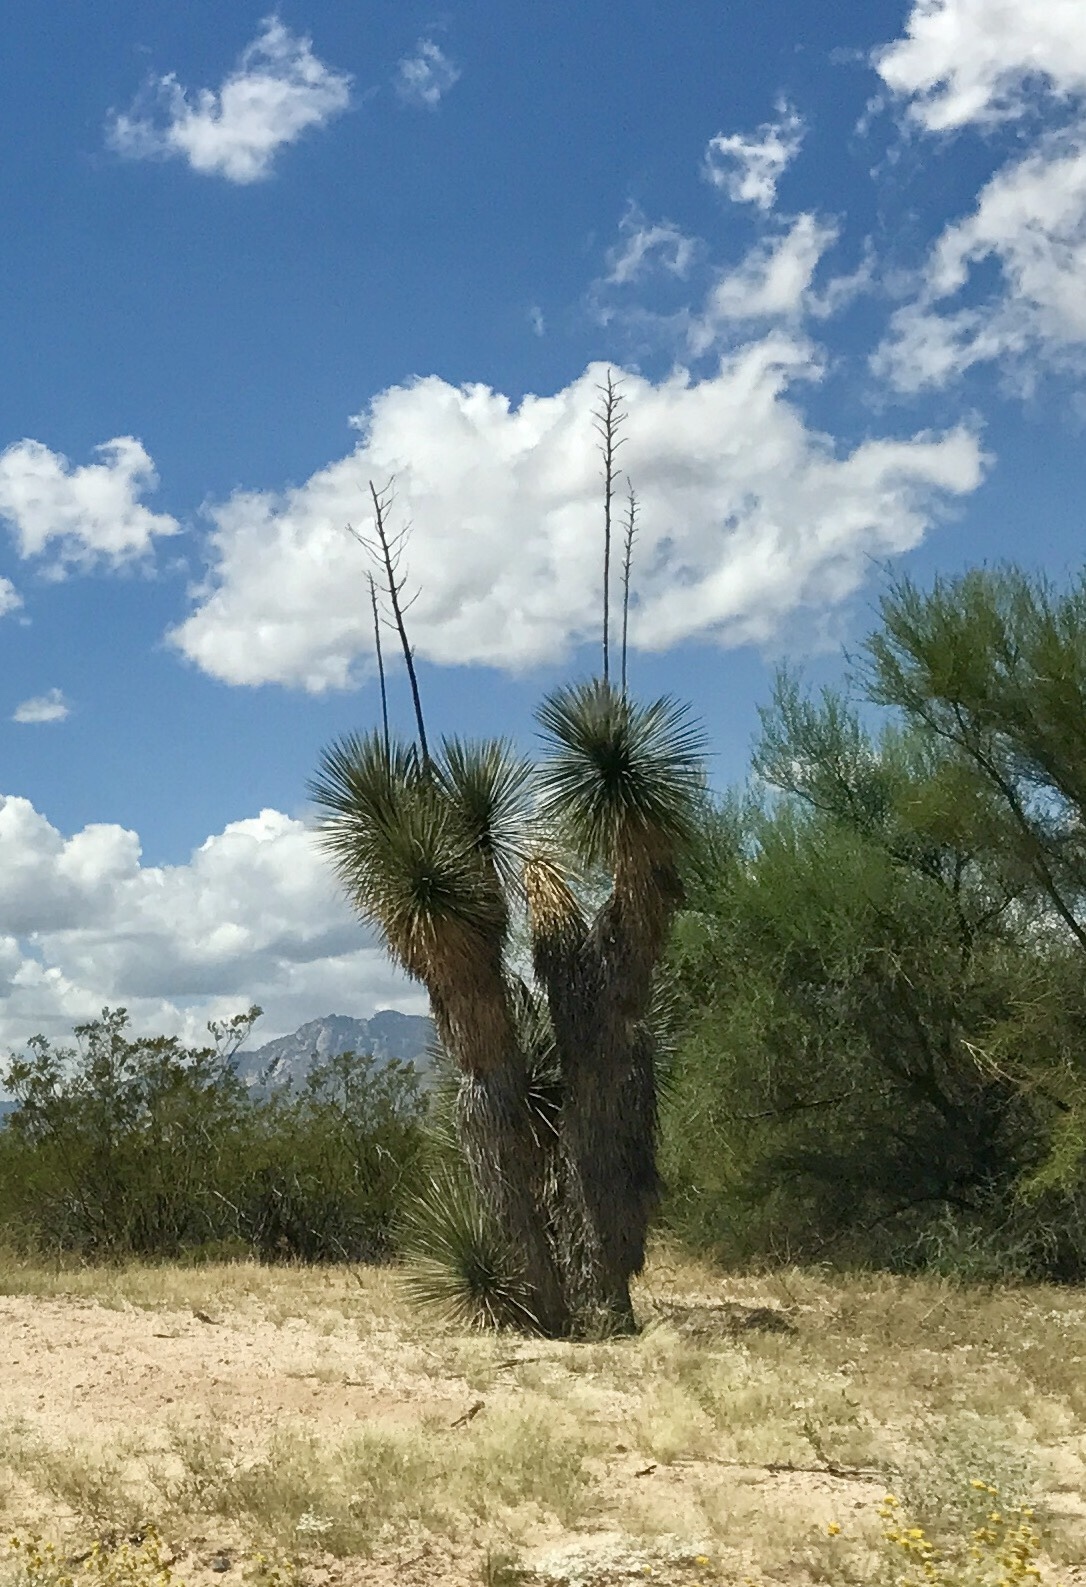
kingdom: Plantae
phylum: Tracheophyta
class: Liliopsida
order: Asparagales
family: Asparagaceae
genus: Yucca
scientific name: Yucca elata
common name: Palmella
